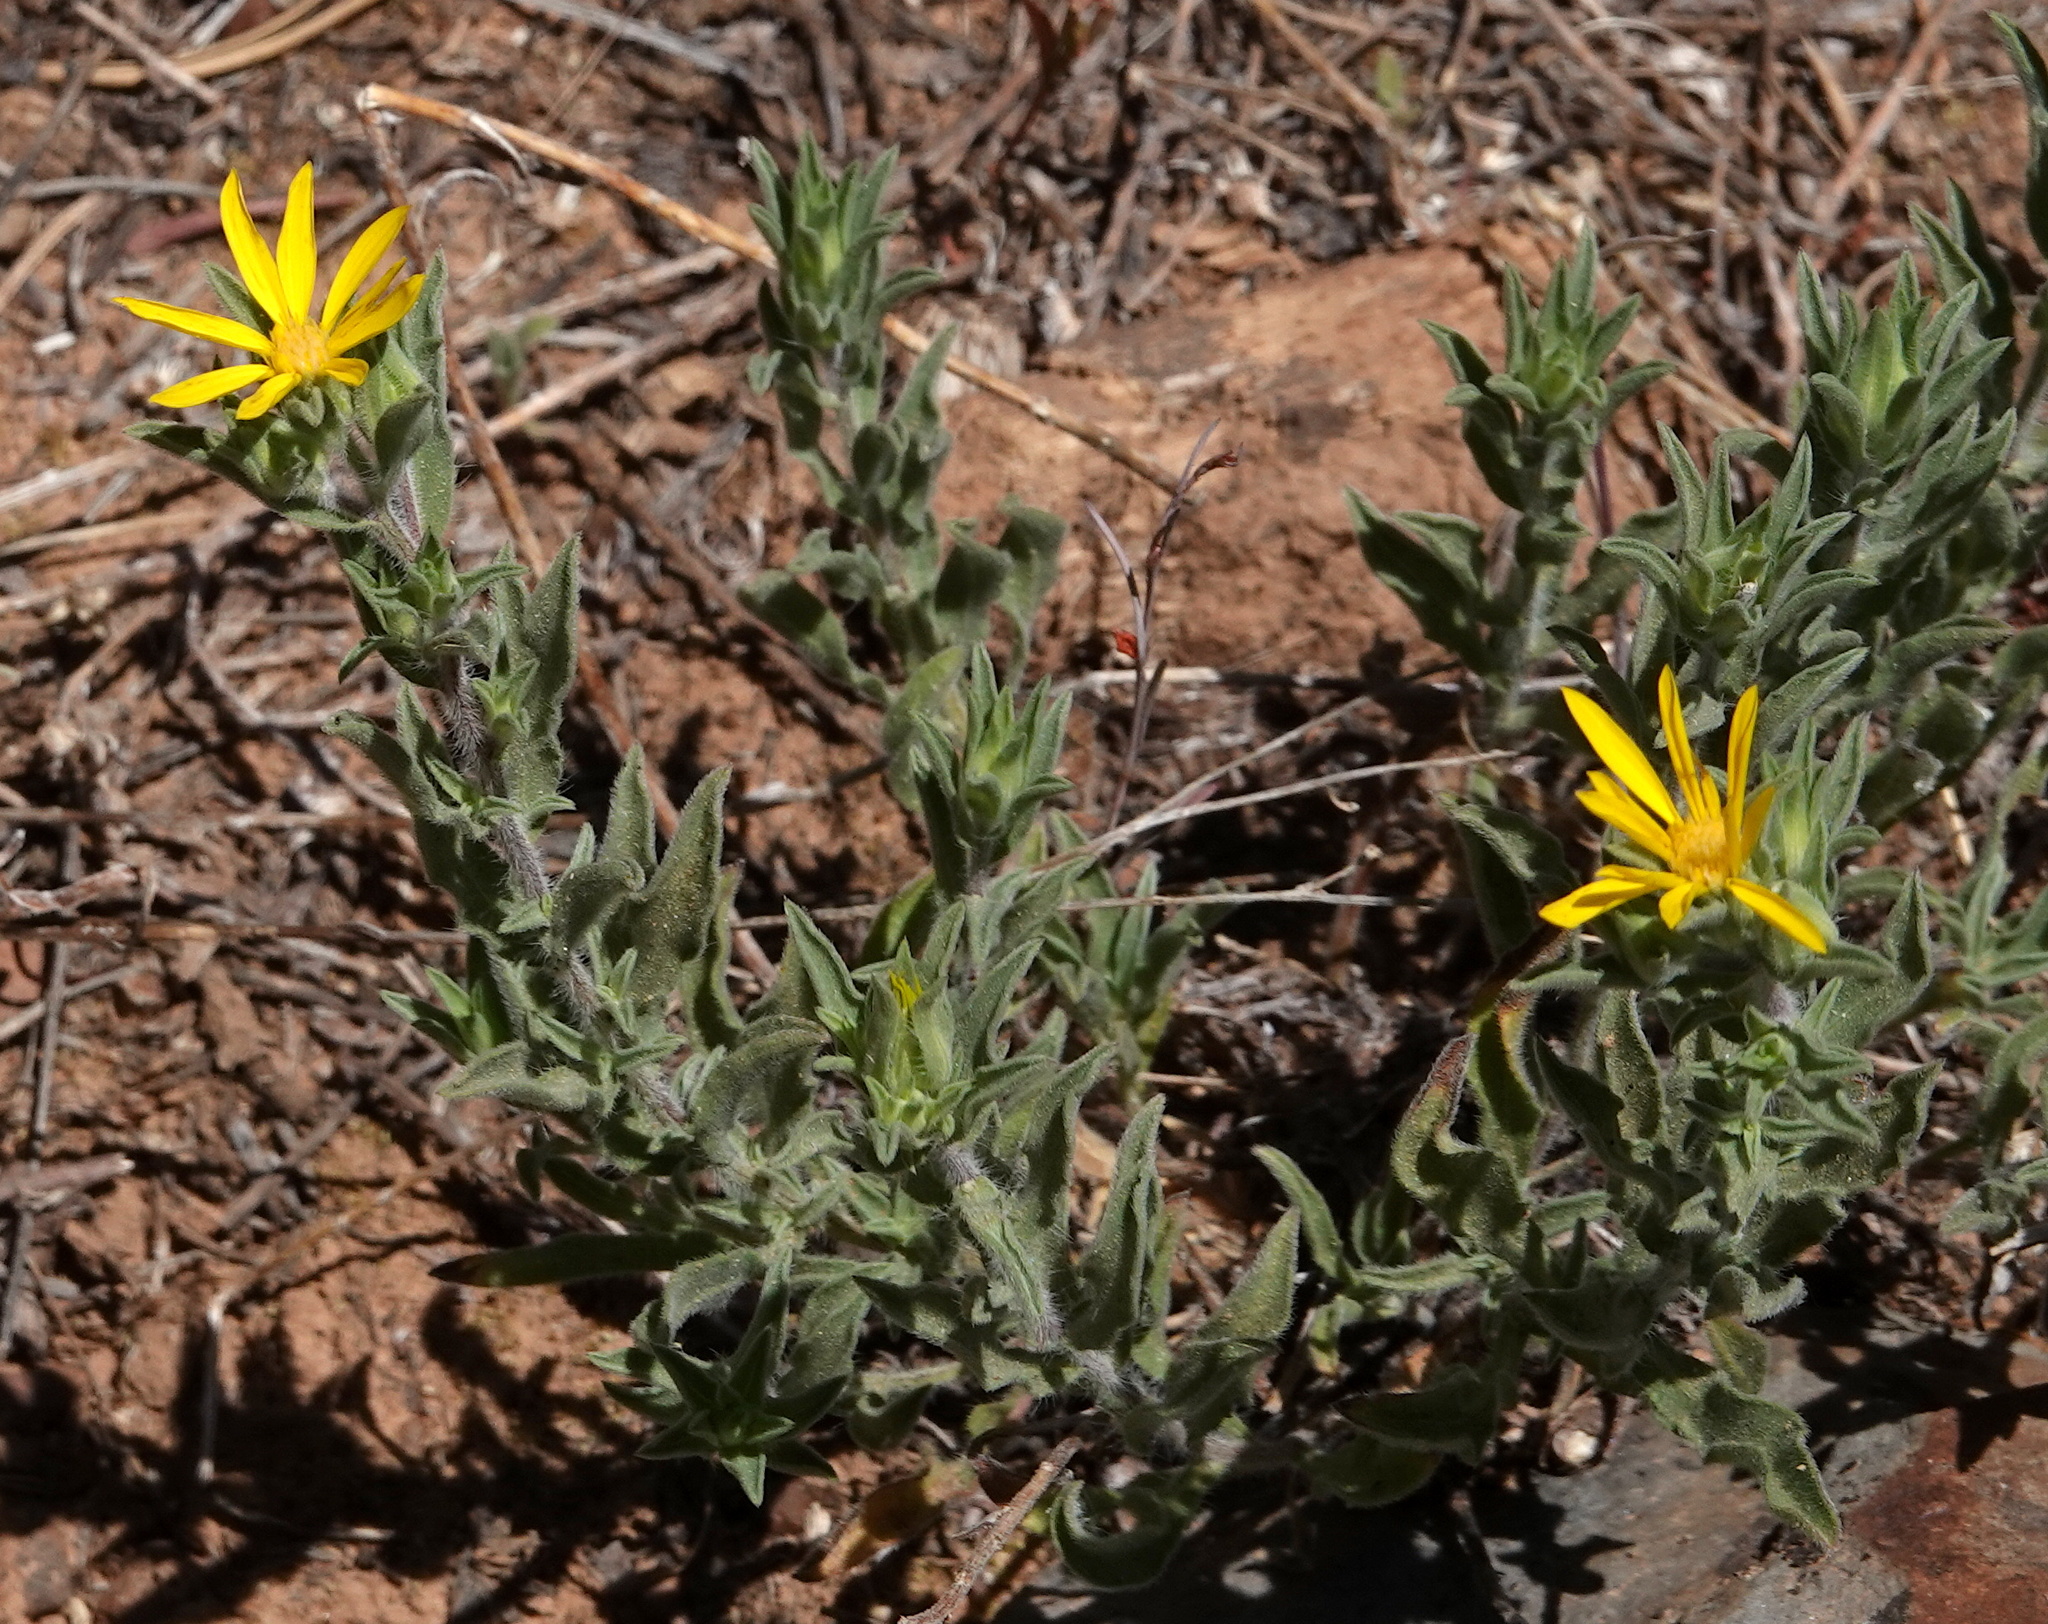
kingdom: Plantae
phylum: Tracheophyta
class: Magnoliopsida
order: Asterales
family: Asteraceae
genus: Heterotheca
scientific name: Heterotheca fulciens
